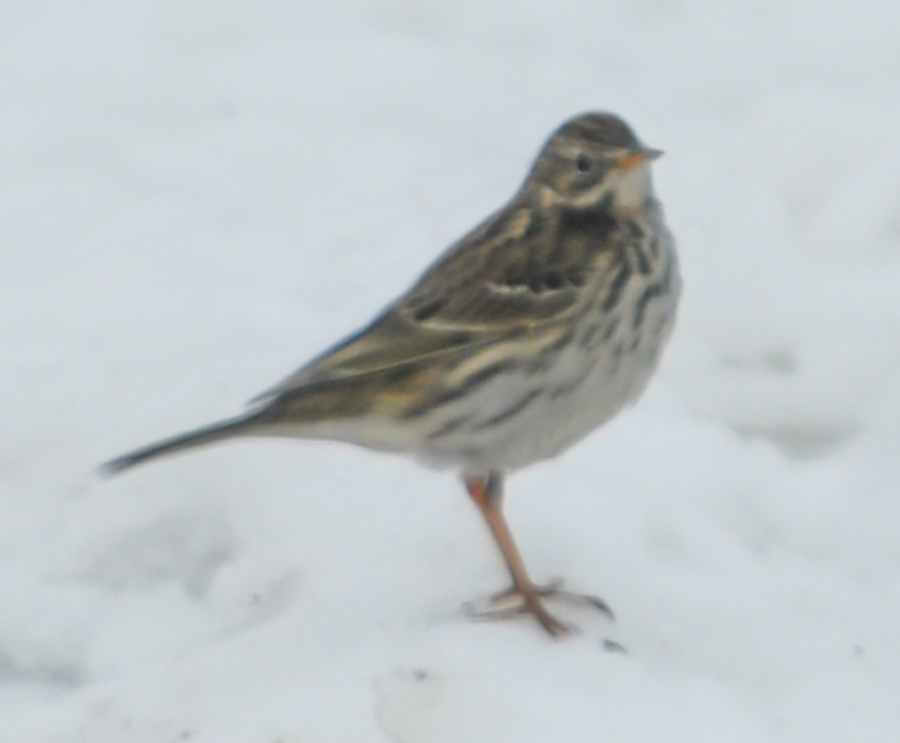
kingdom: Animalia
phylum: Chordata
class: Aves
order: Passeriformes
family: Motacillidae
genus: Anthus
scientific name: Anthus pratensis
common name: Meadow pipit
